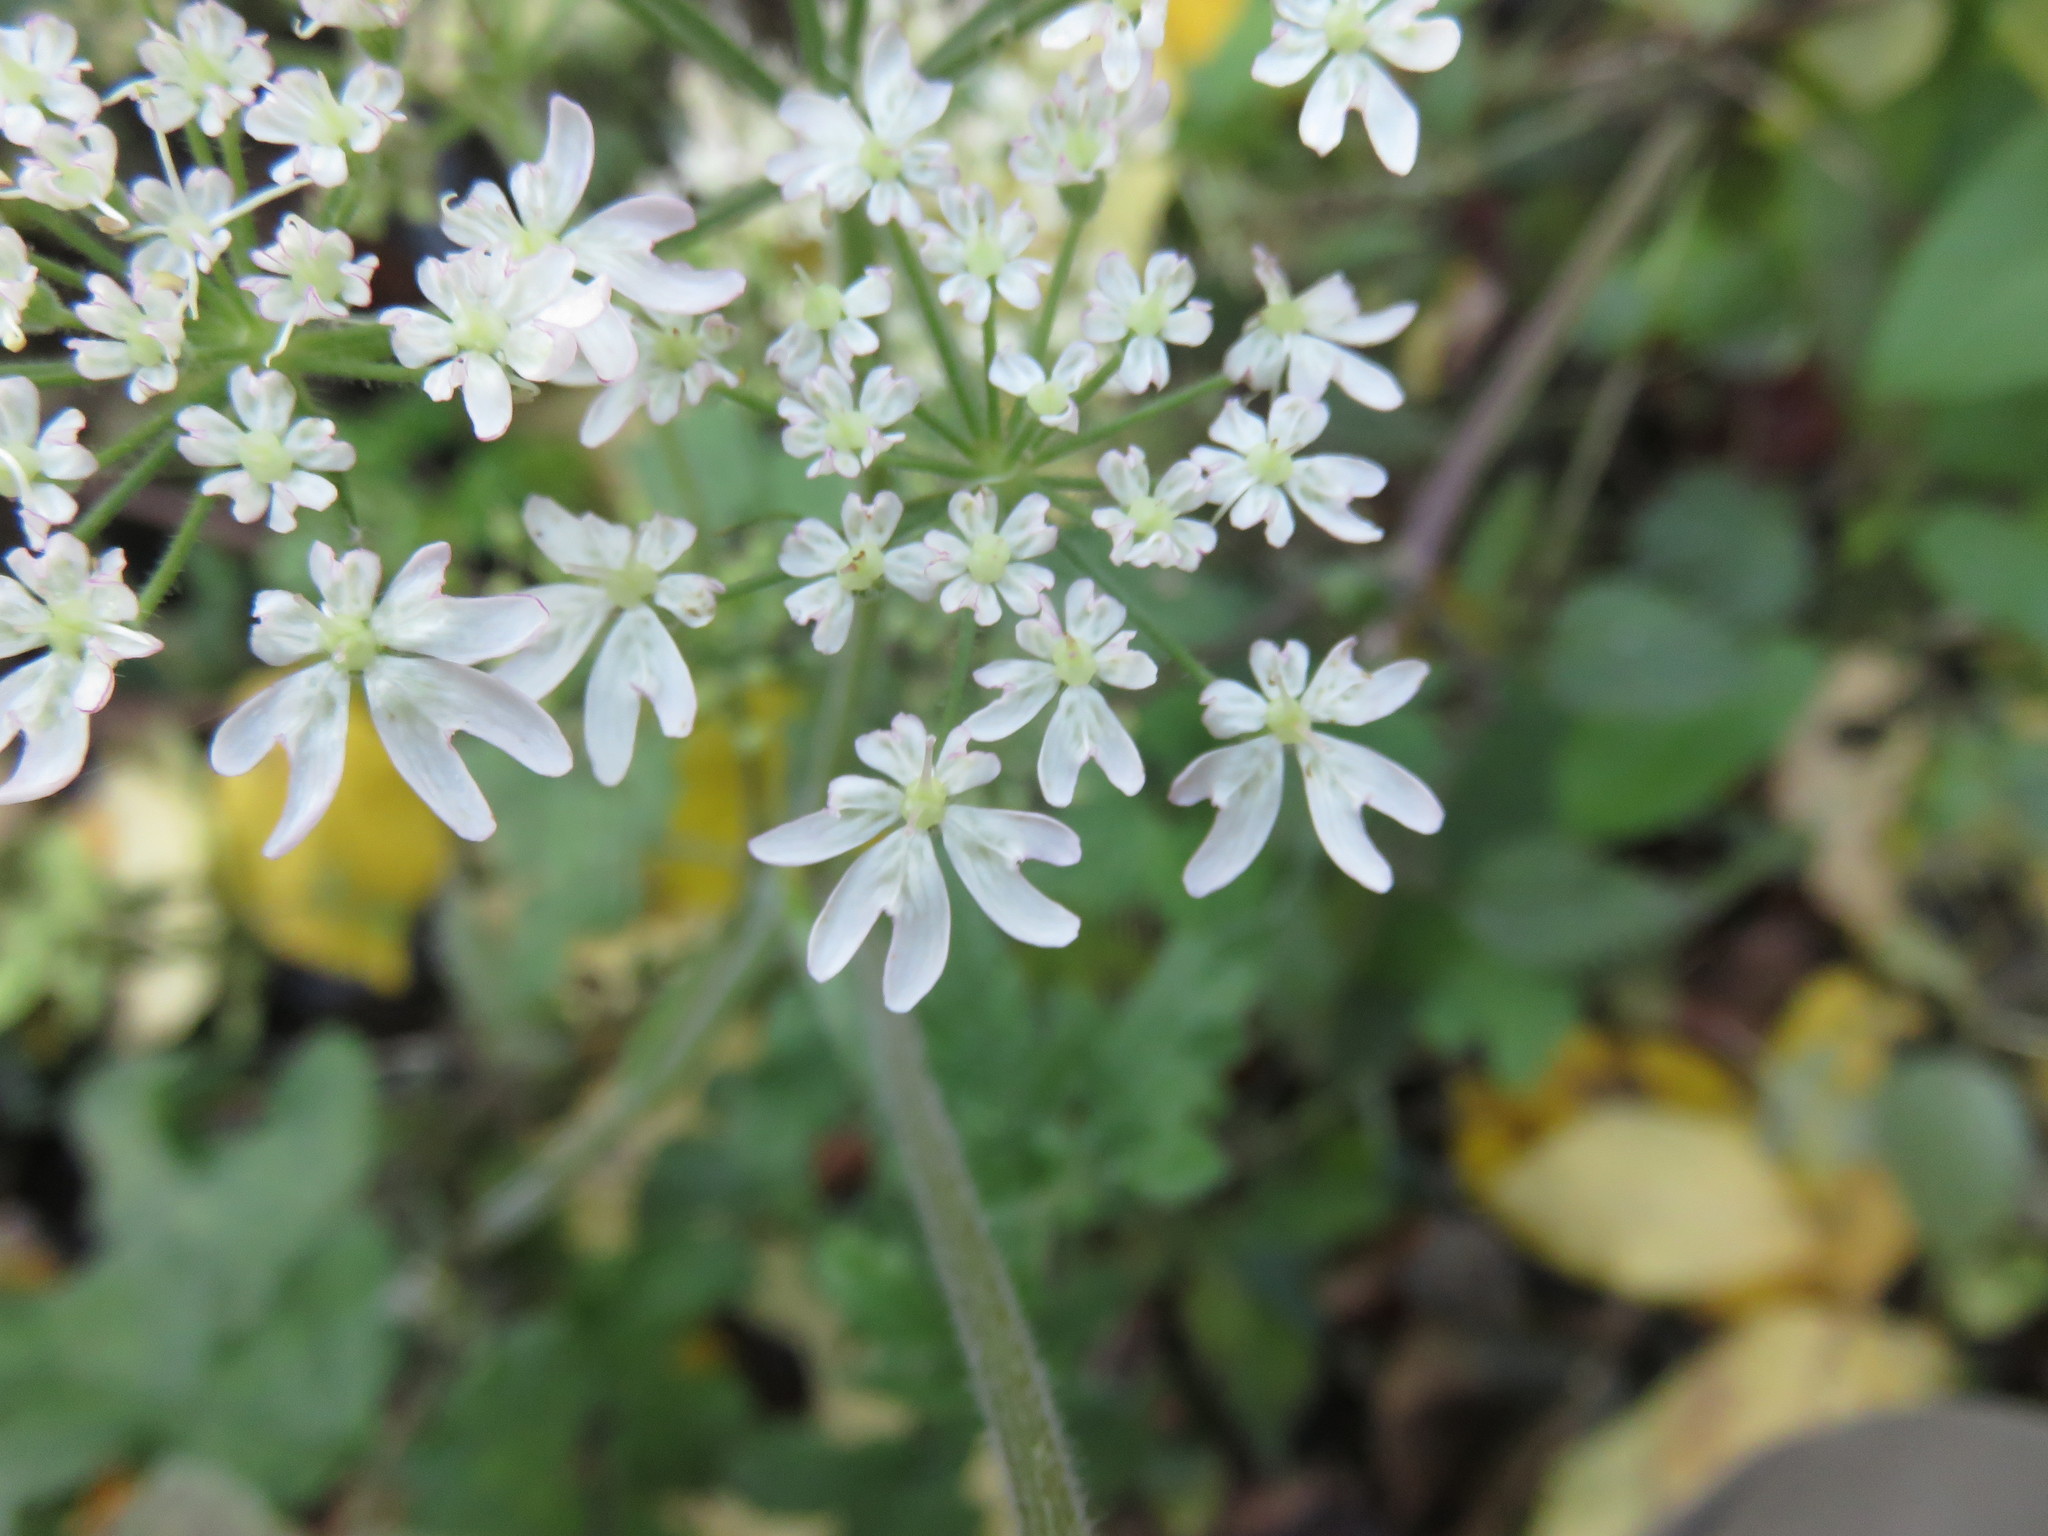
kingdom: Plantae
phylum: Tracheophyta
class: Magnoliopsida
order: Apiales
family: Apiaceae
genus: Heracleum
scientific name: Heracleum sphondylium
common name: Hogweed
